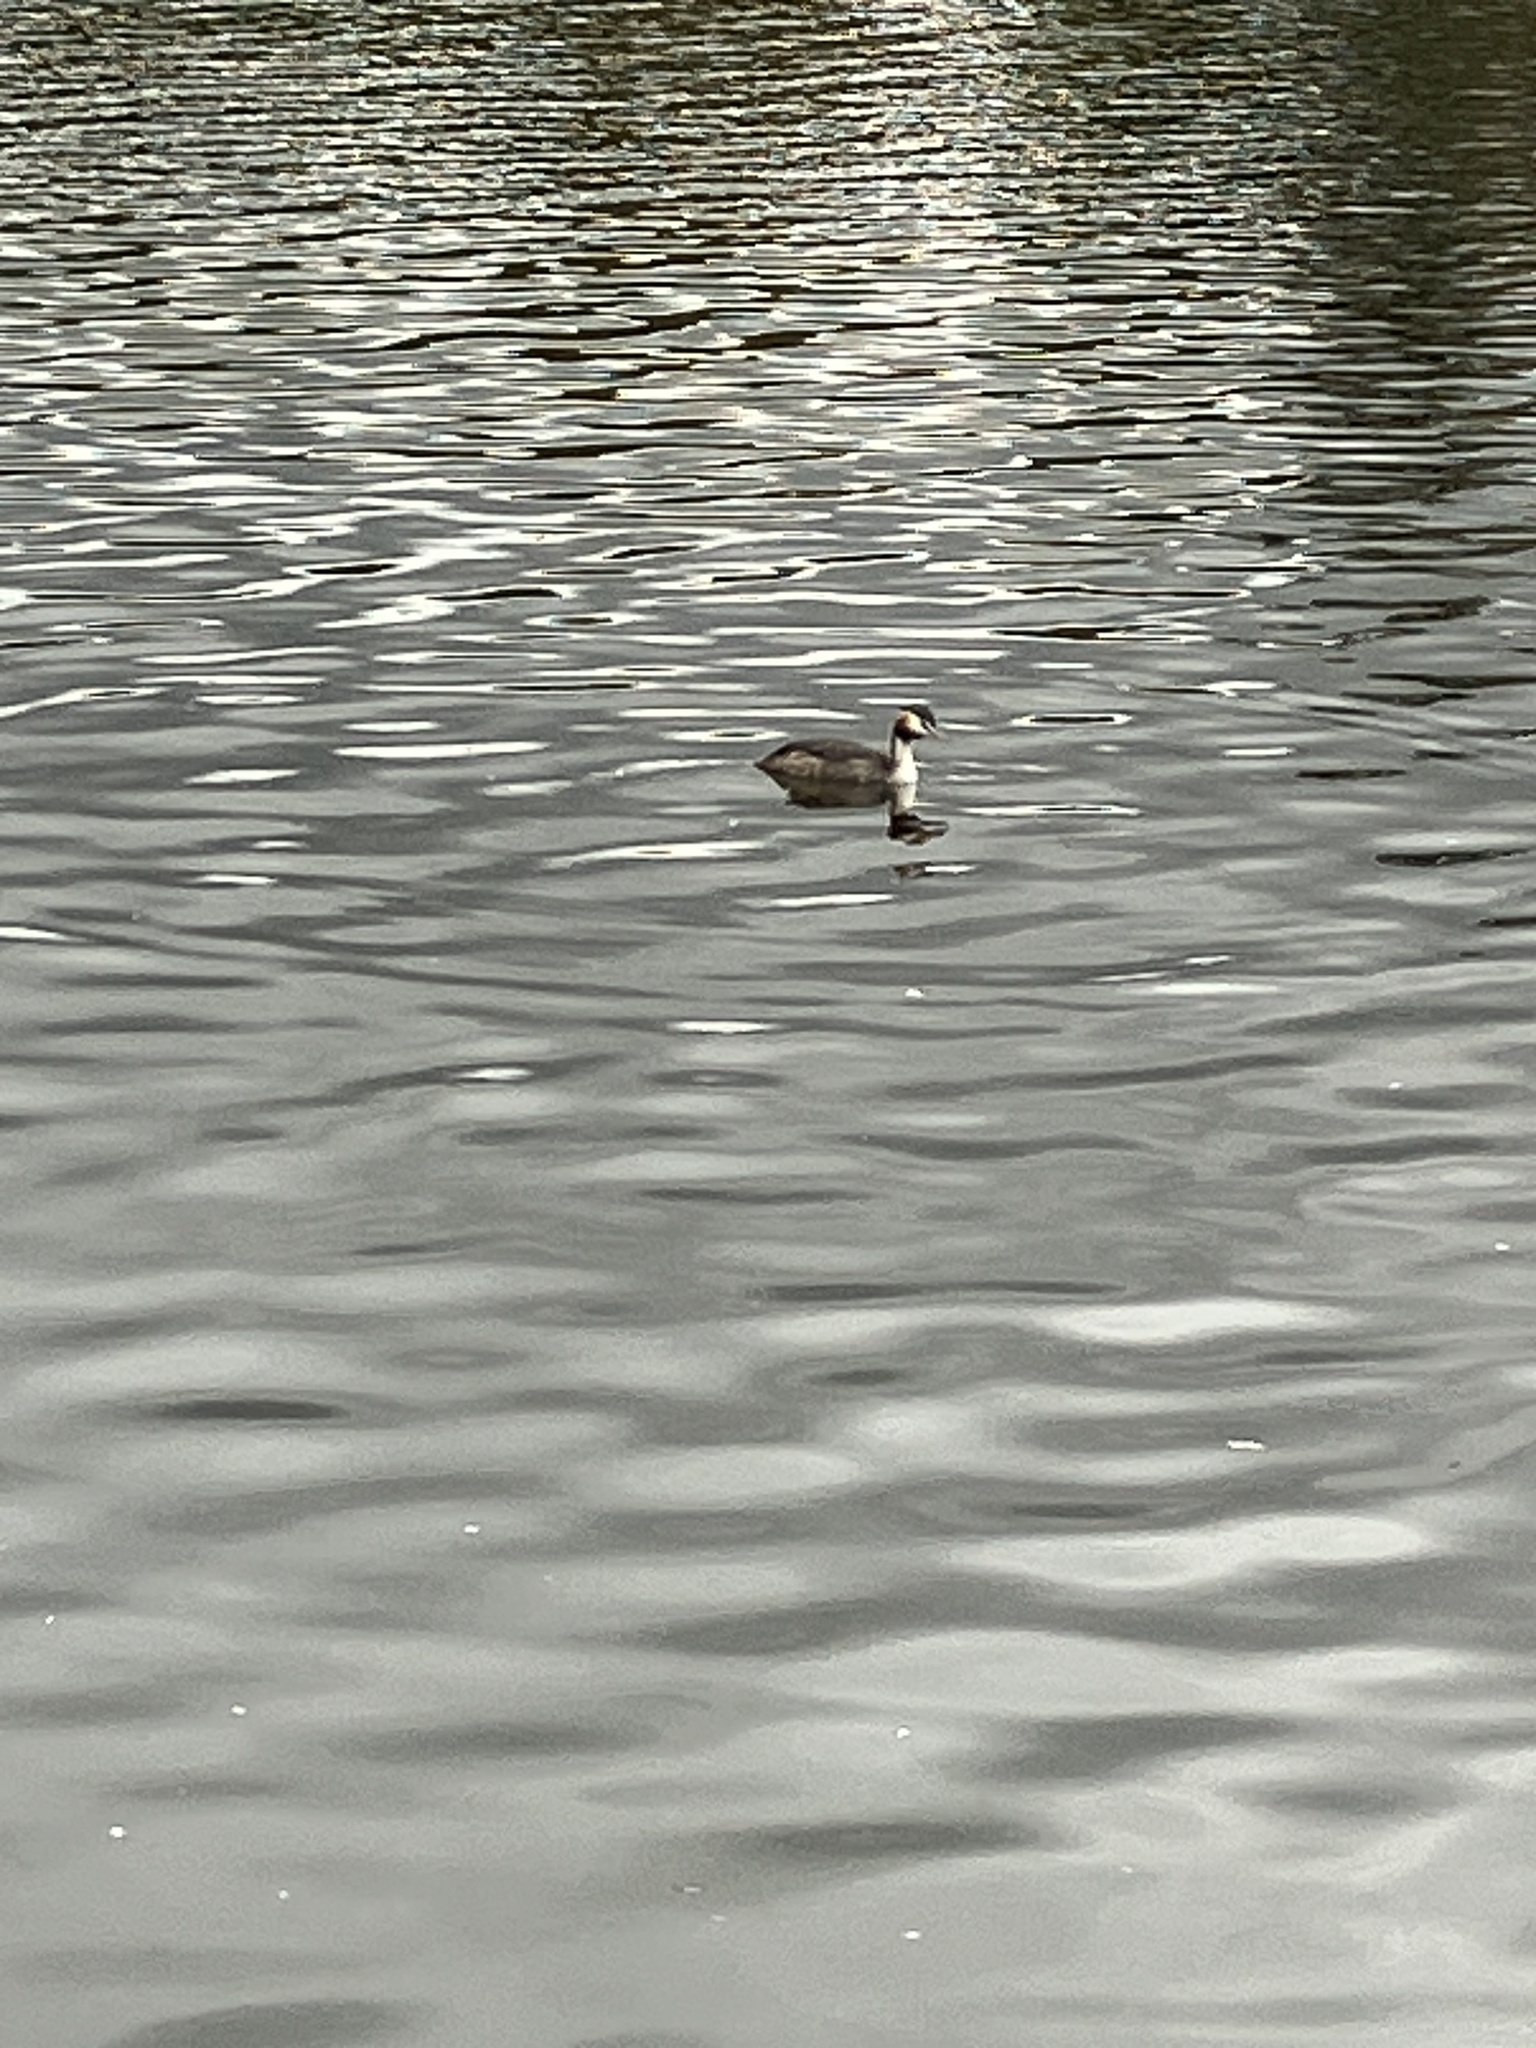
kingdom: Animalia
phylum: Chordata
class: Aves
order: Podicipediformes
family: Podicipedidae
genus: Podiceps
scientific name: Podiceps cristatus
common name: Great crested grebe
